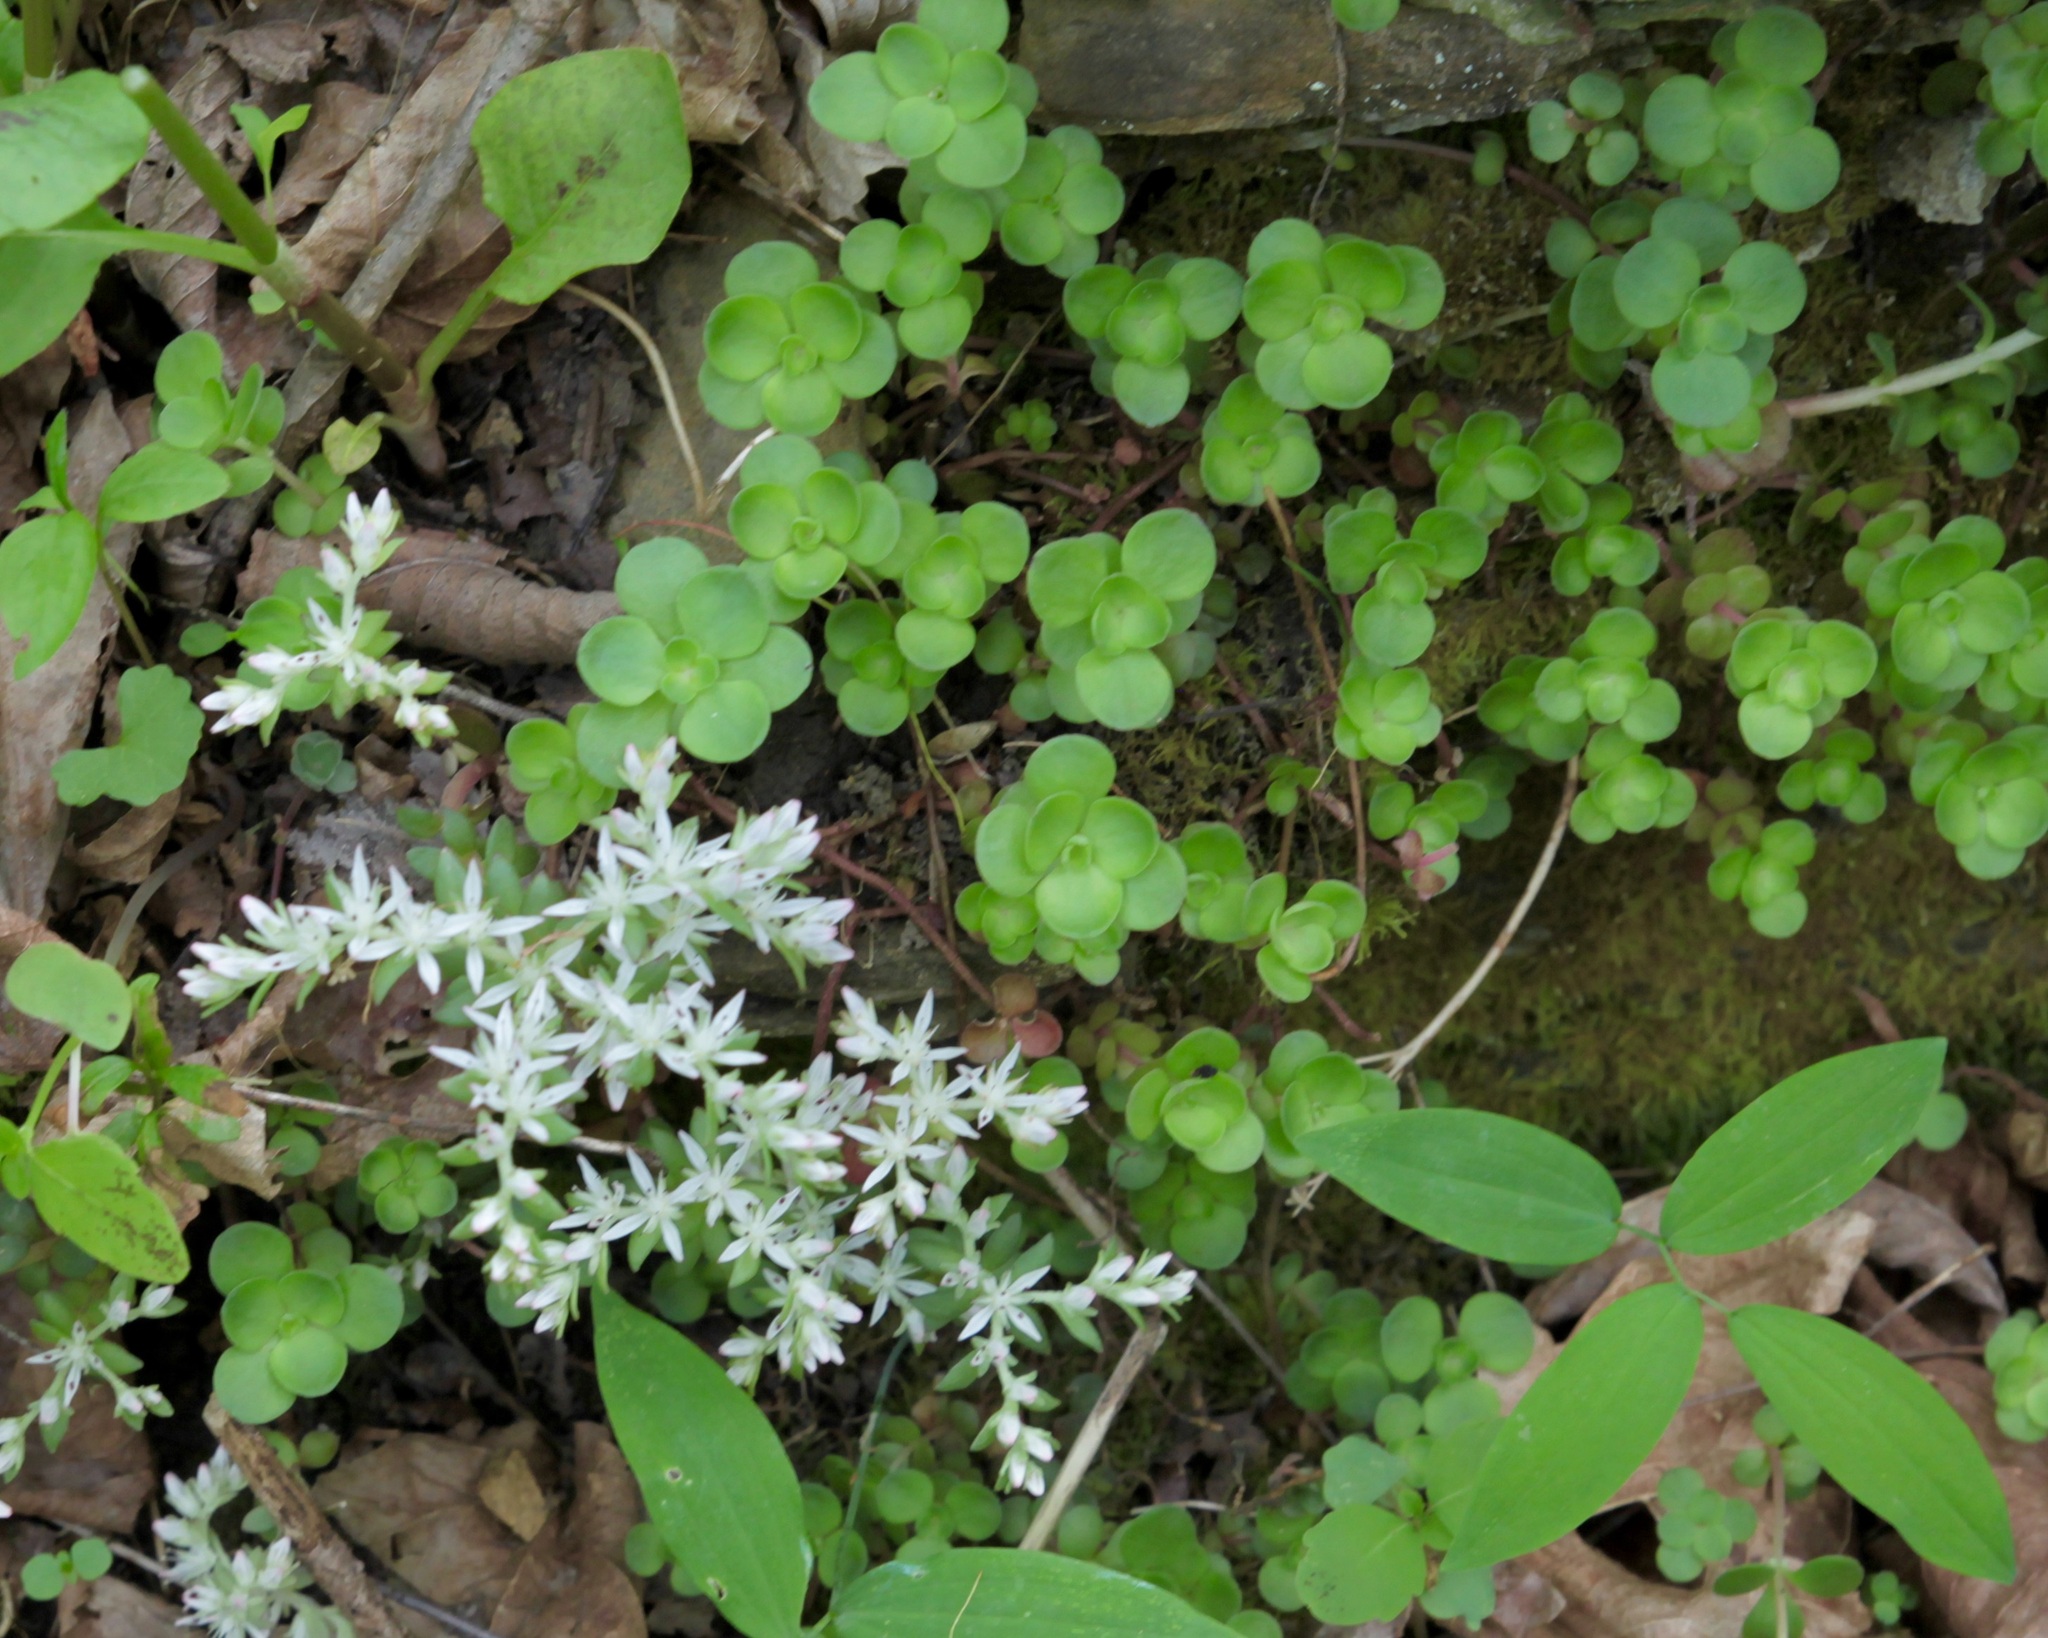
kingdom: Plantae
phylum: Tracheophyta
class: Magnoliopsida
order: Saxifragales
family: Crassulaceae
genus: Sedum
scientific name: Sedum ternatum
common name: Wild stonecrop
